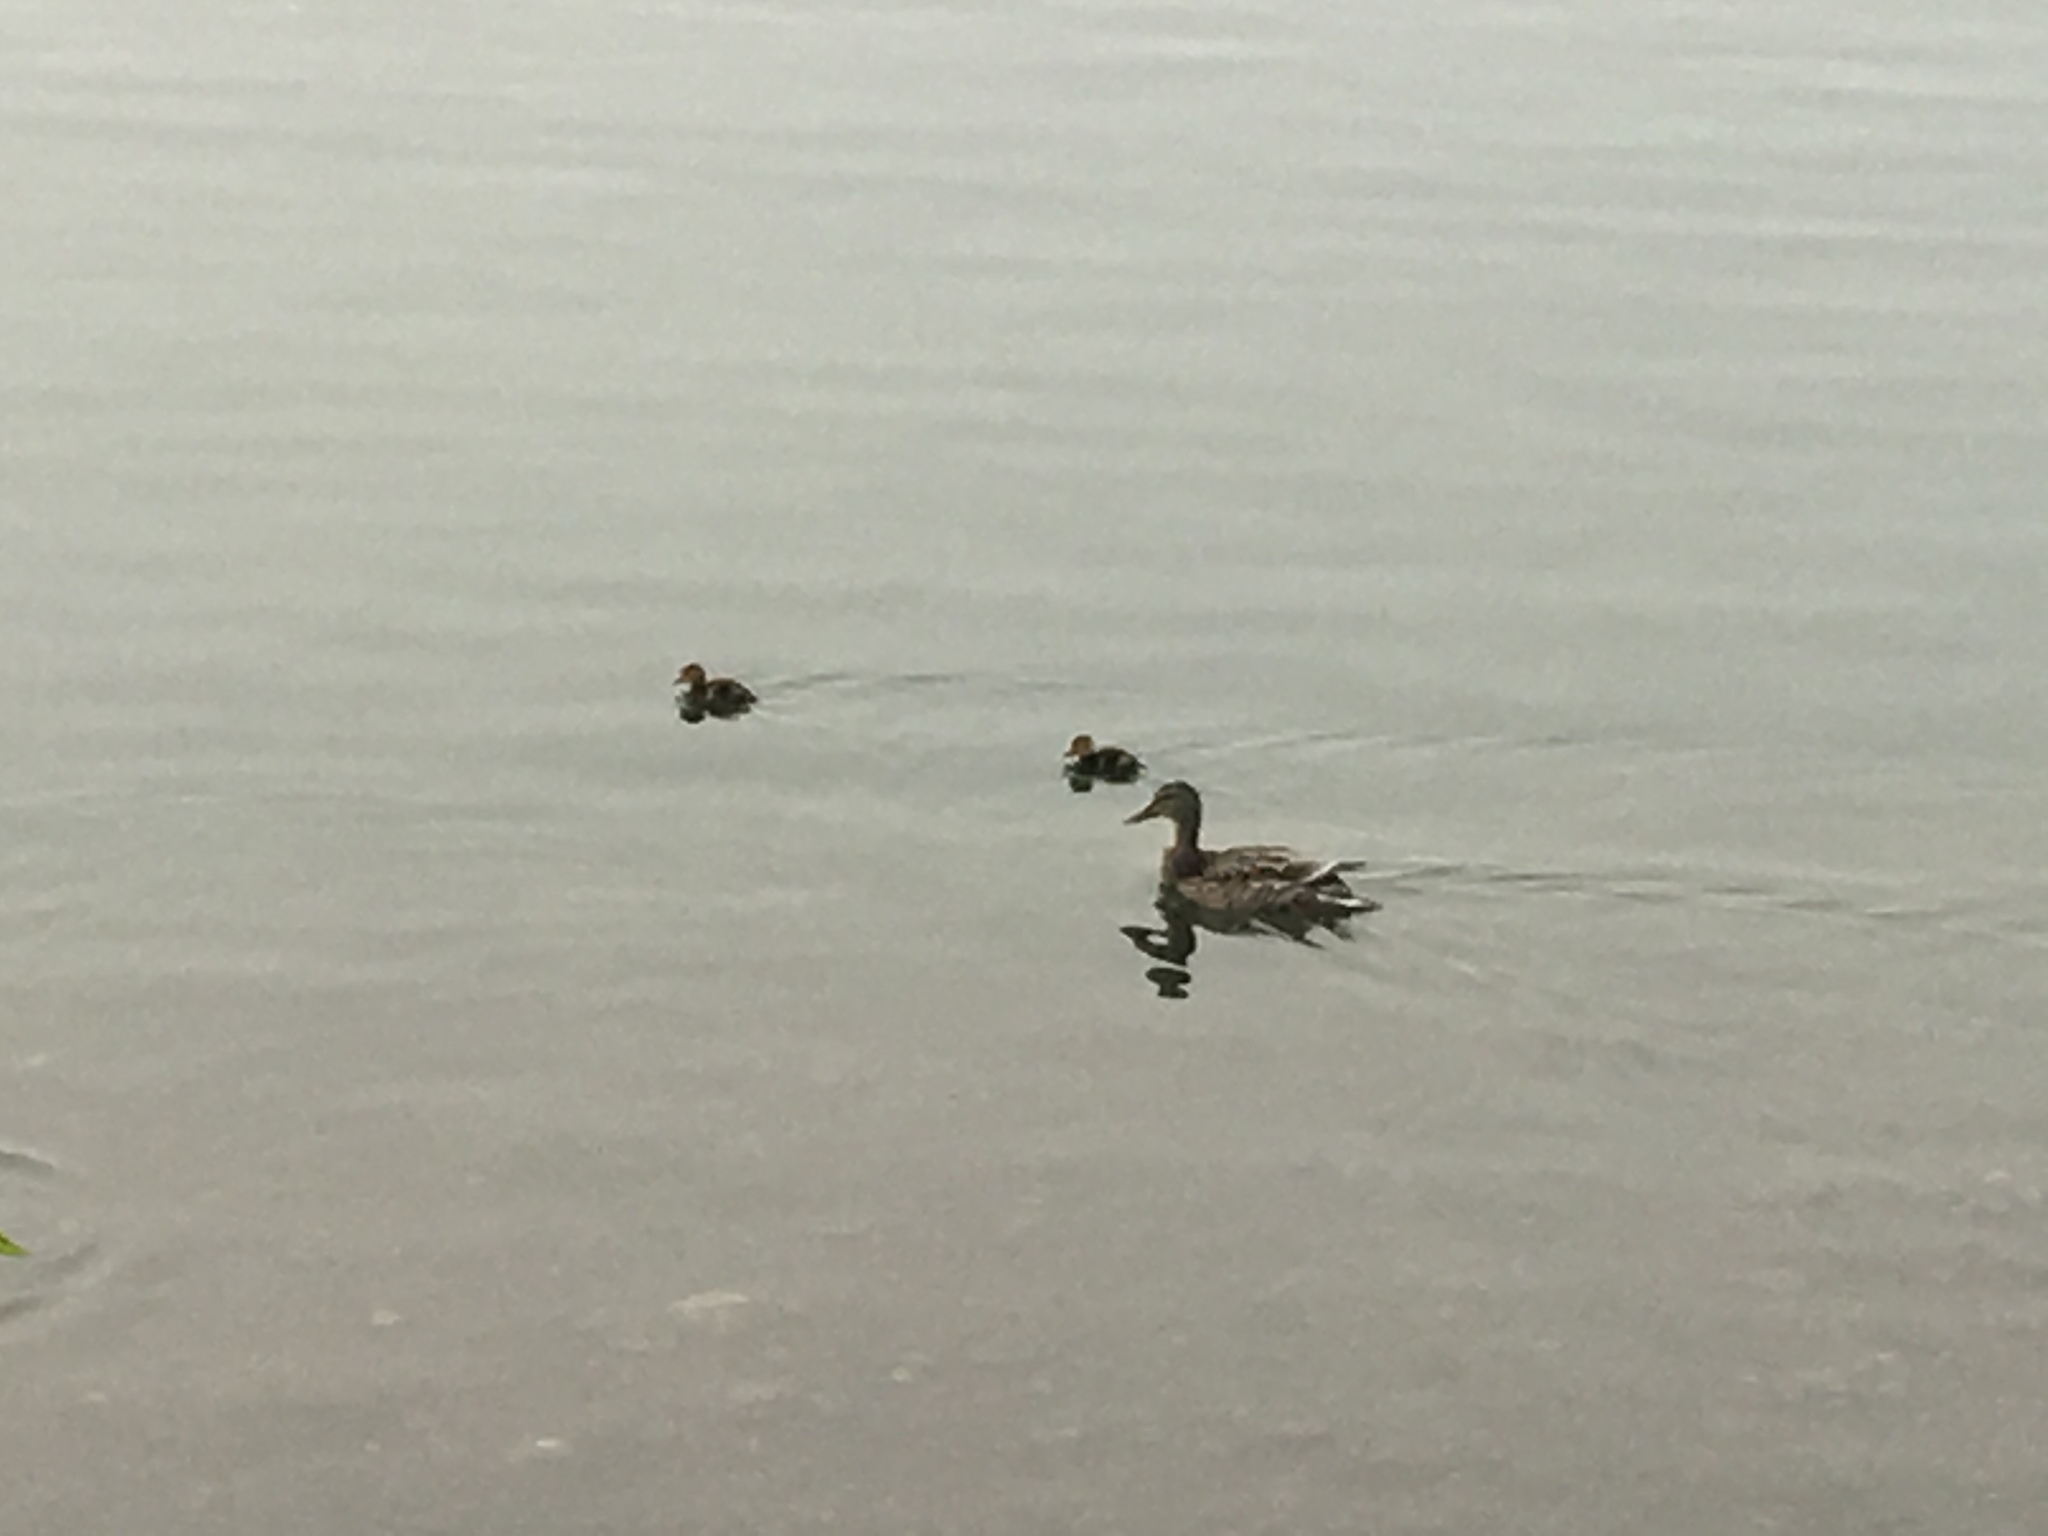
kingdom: Animalia
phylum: Chordata
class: Aves
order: Anseriformes
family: Anatidae
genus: Anas
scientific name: Anas platyrhynchos
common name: Mallard
